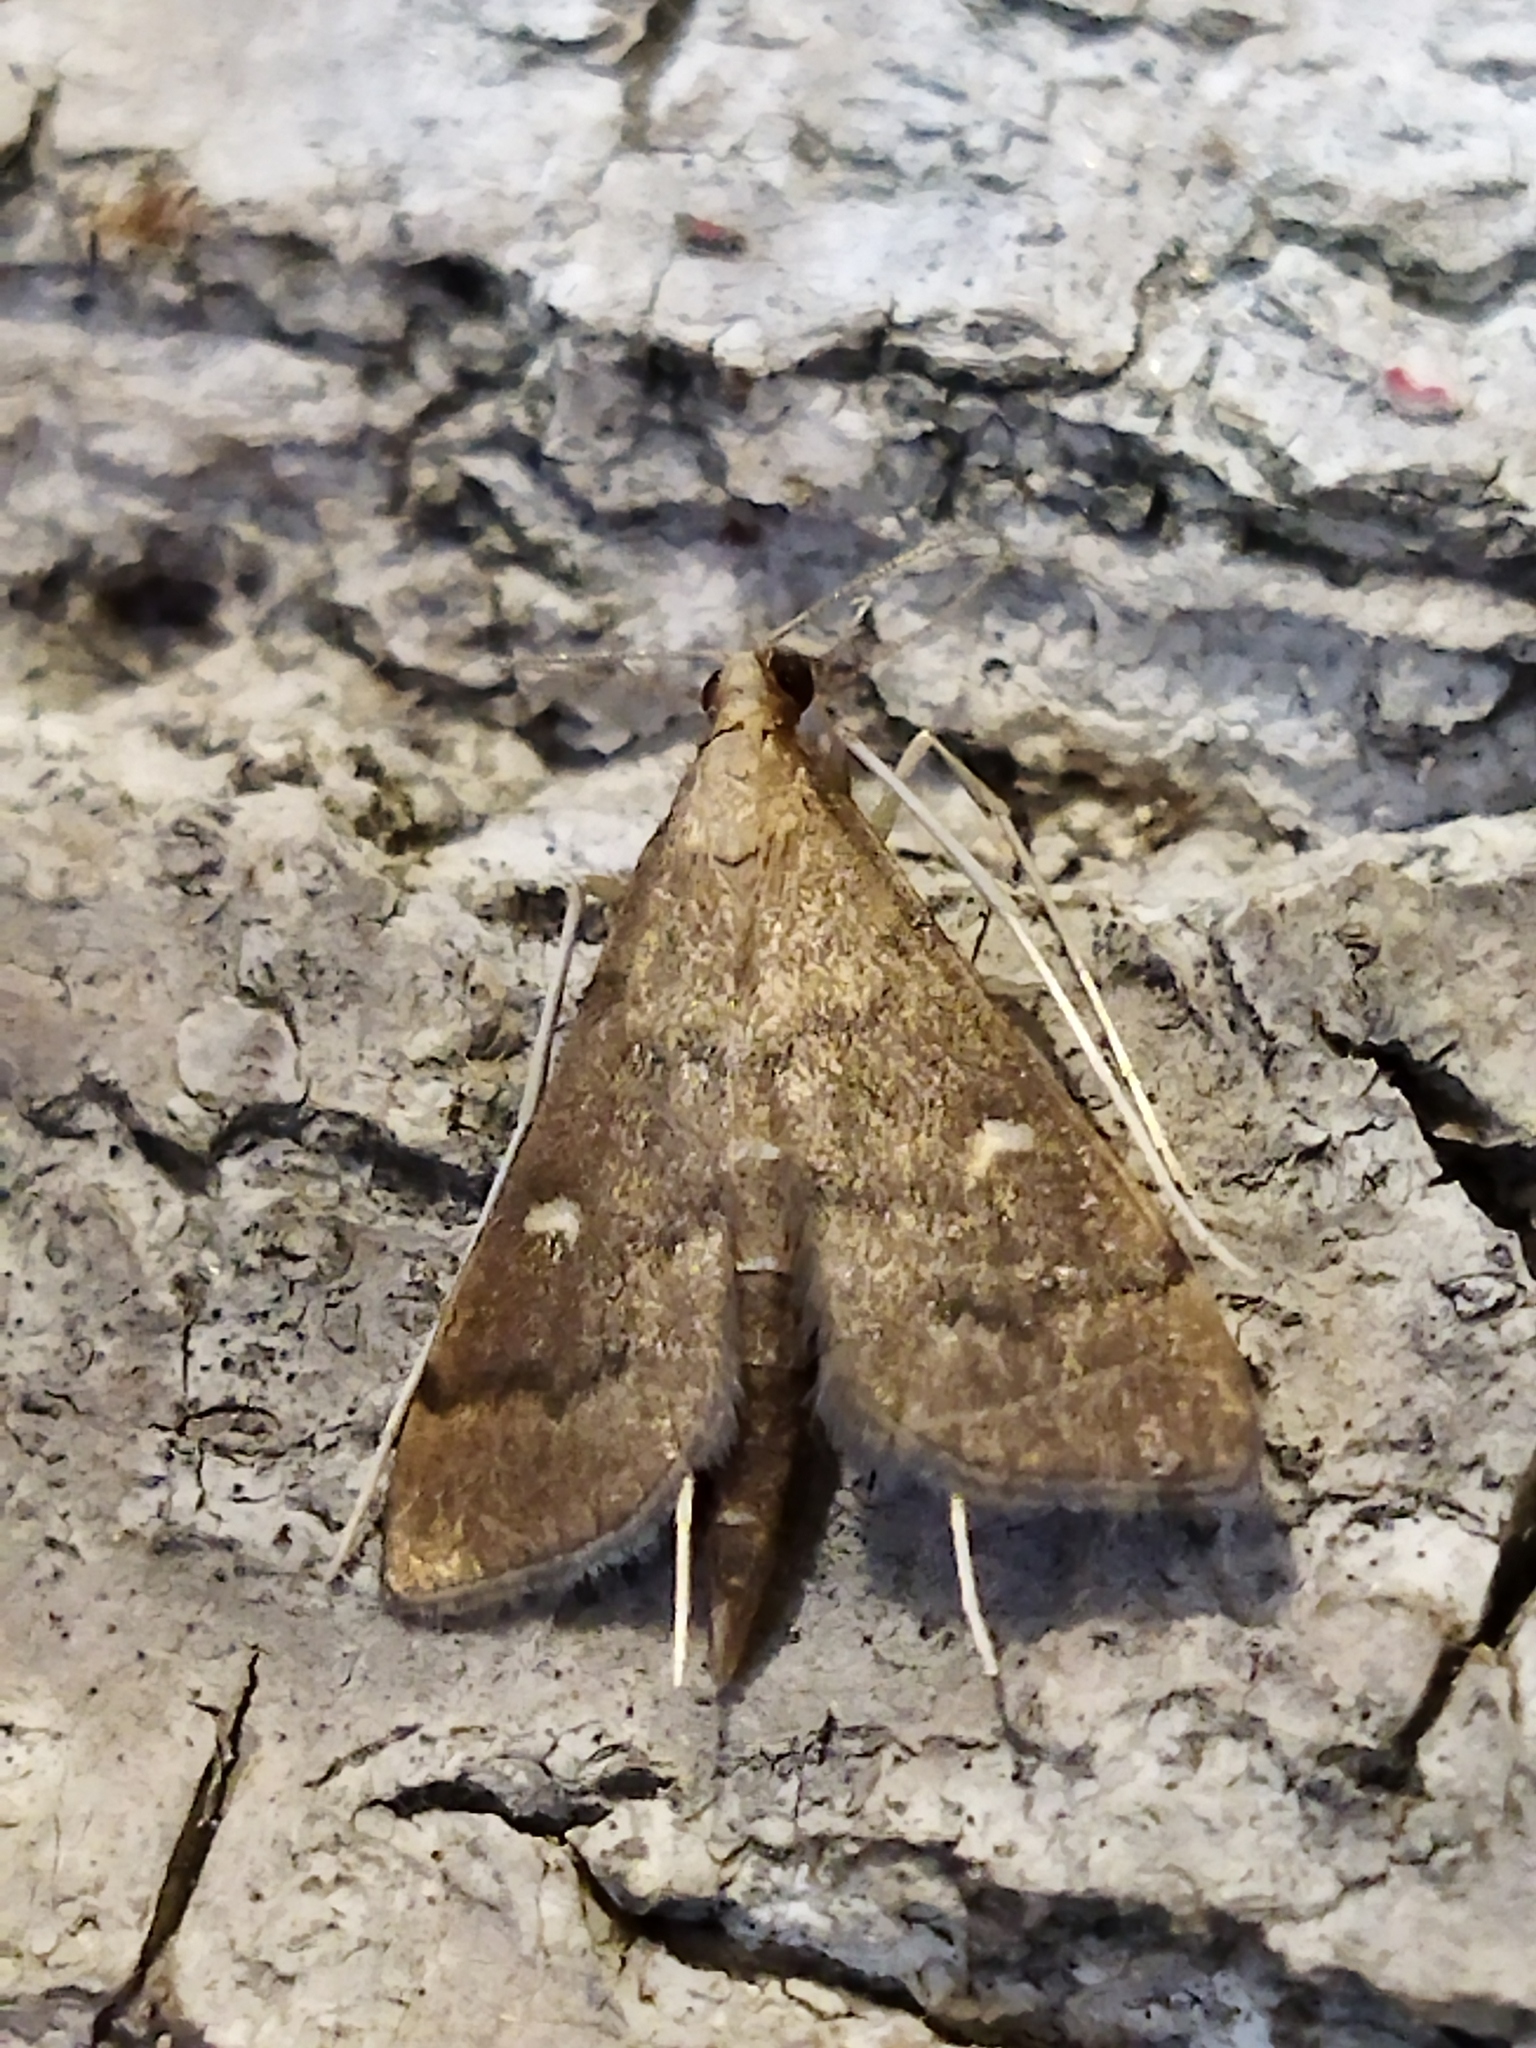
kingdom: Animalia
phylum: Arthropoda
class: Insecta
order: Lepidoptera
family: Crambidae
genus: Stenia
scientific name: Stenia Dolicharthria punctalis
